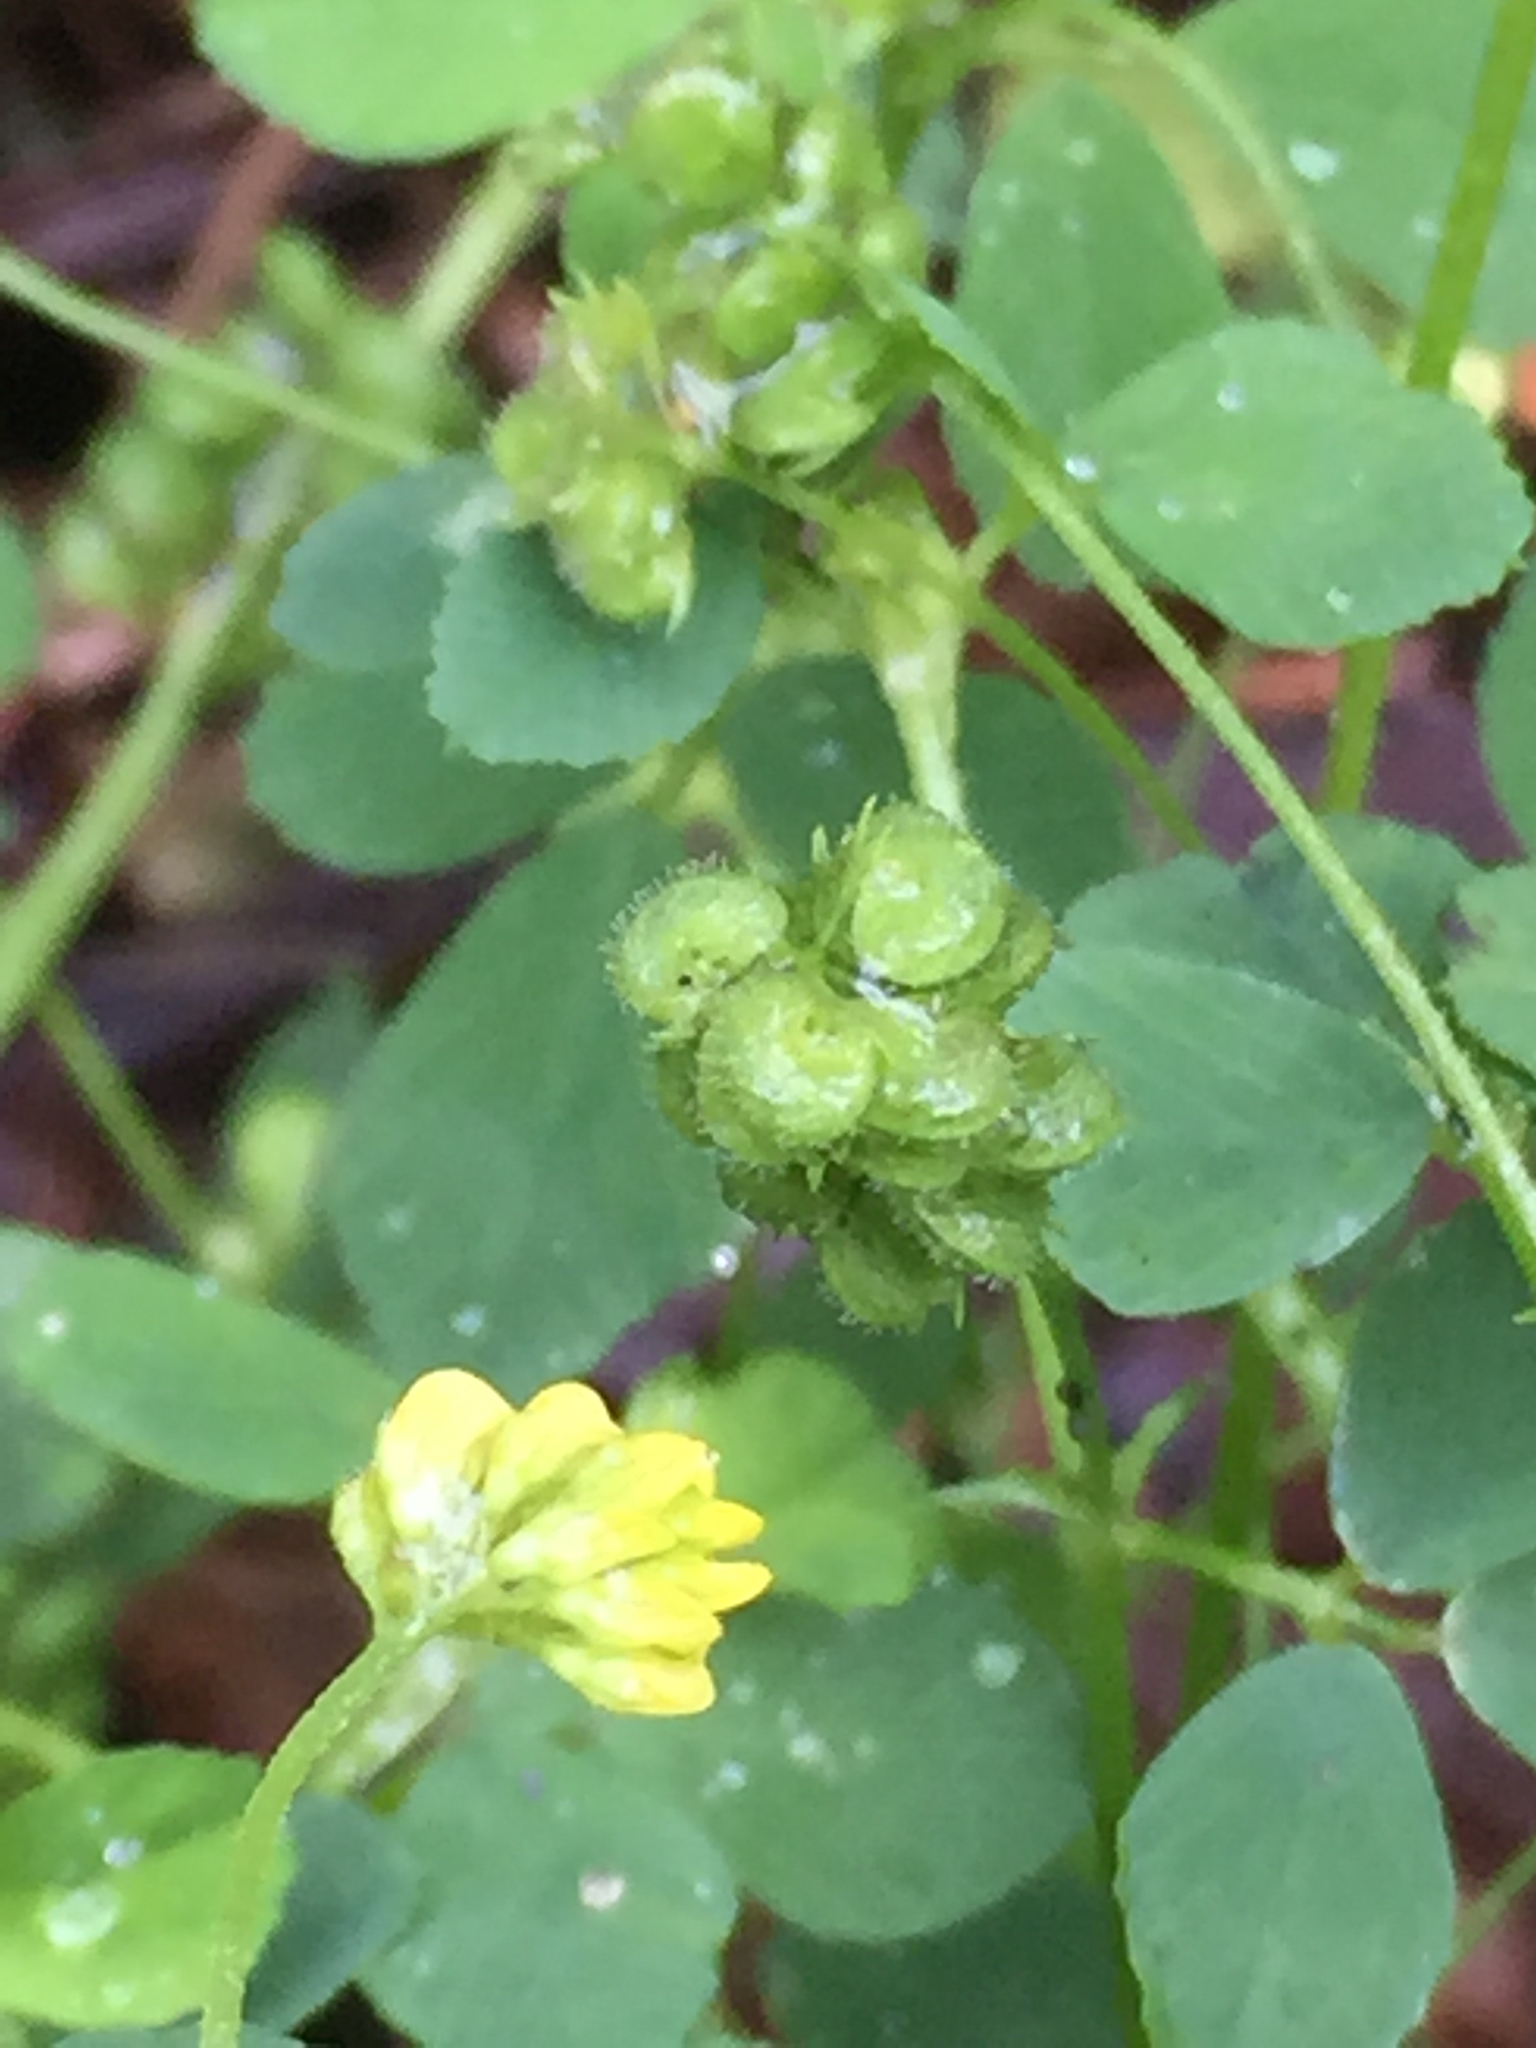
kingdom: Plantae
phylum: Tracheophyta
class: Magnoliopsida
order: Fabales
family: Fabaceae
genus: Medicago
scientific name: Medicago lupulina
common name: Black medick
